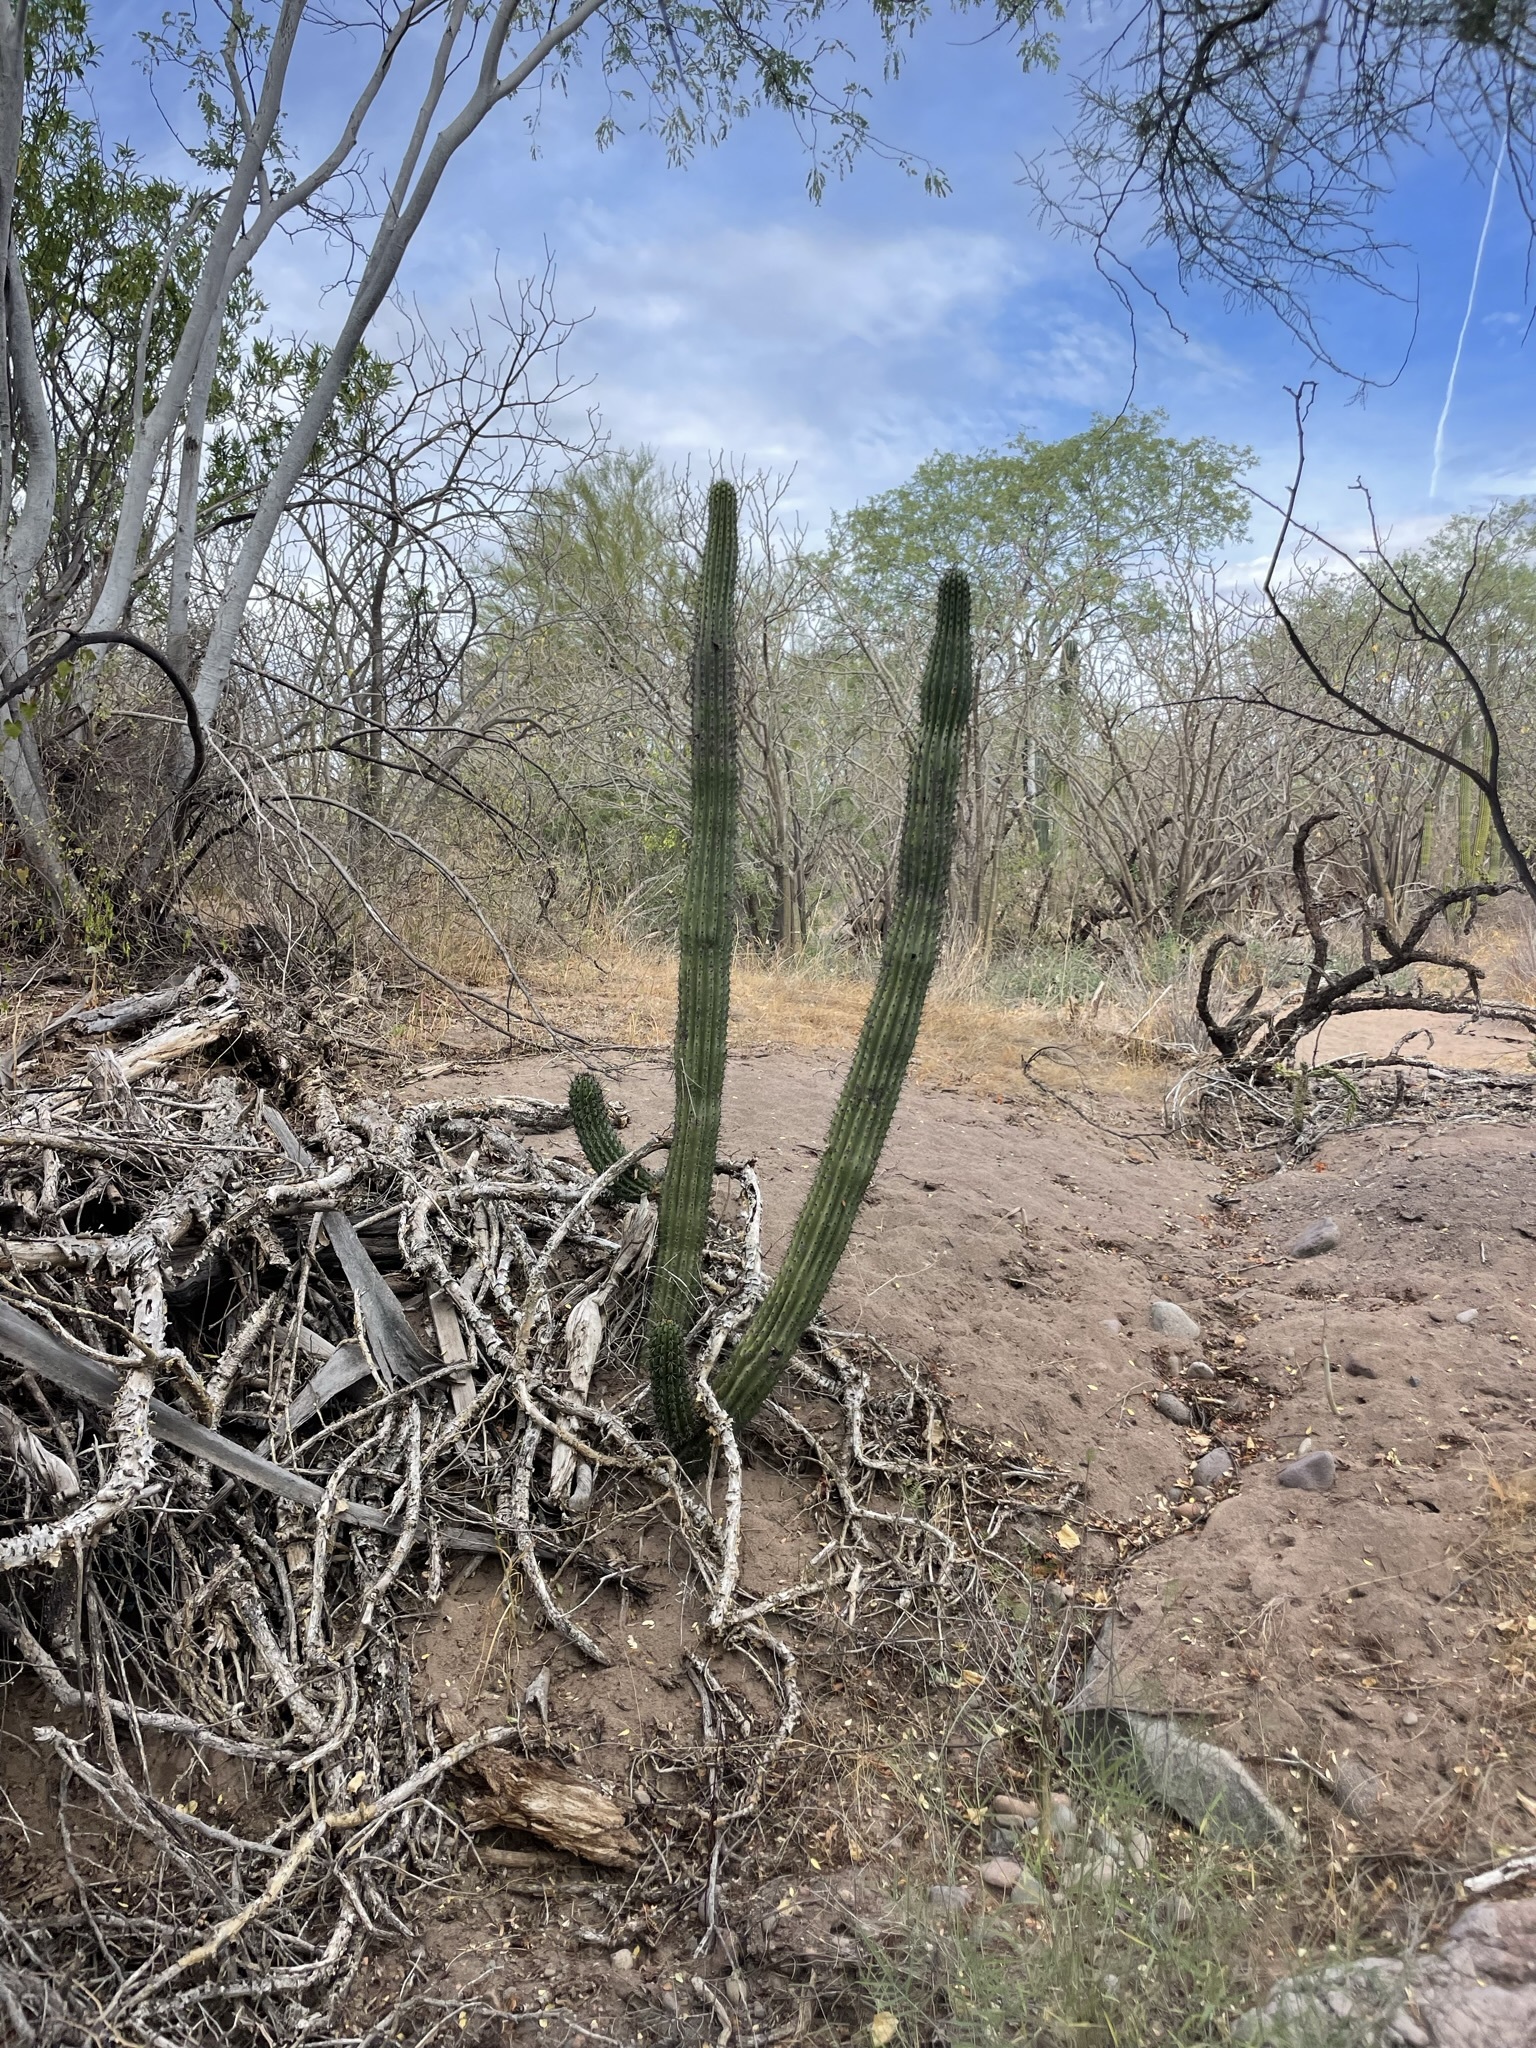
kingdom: Plantae
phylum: Tracheophyta
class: Magnoliopsida
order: Caryophyllales
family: Cactaceae
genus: Stenocereus
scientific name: Stenocereus thurberi
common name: Organ pipe cactus
